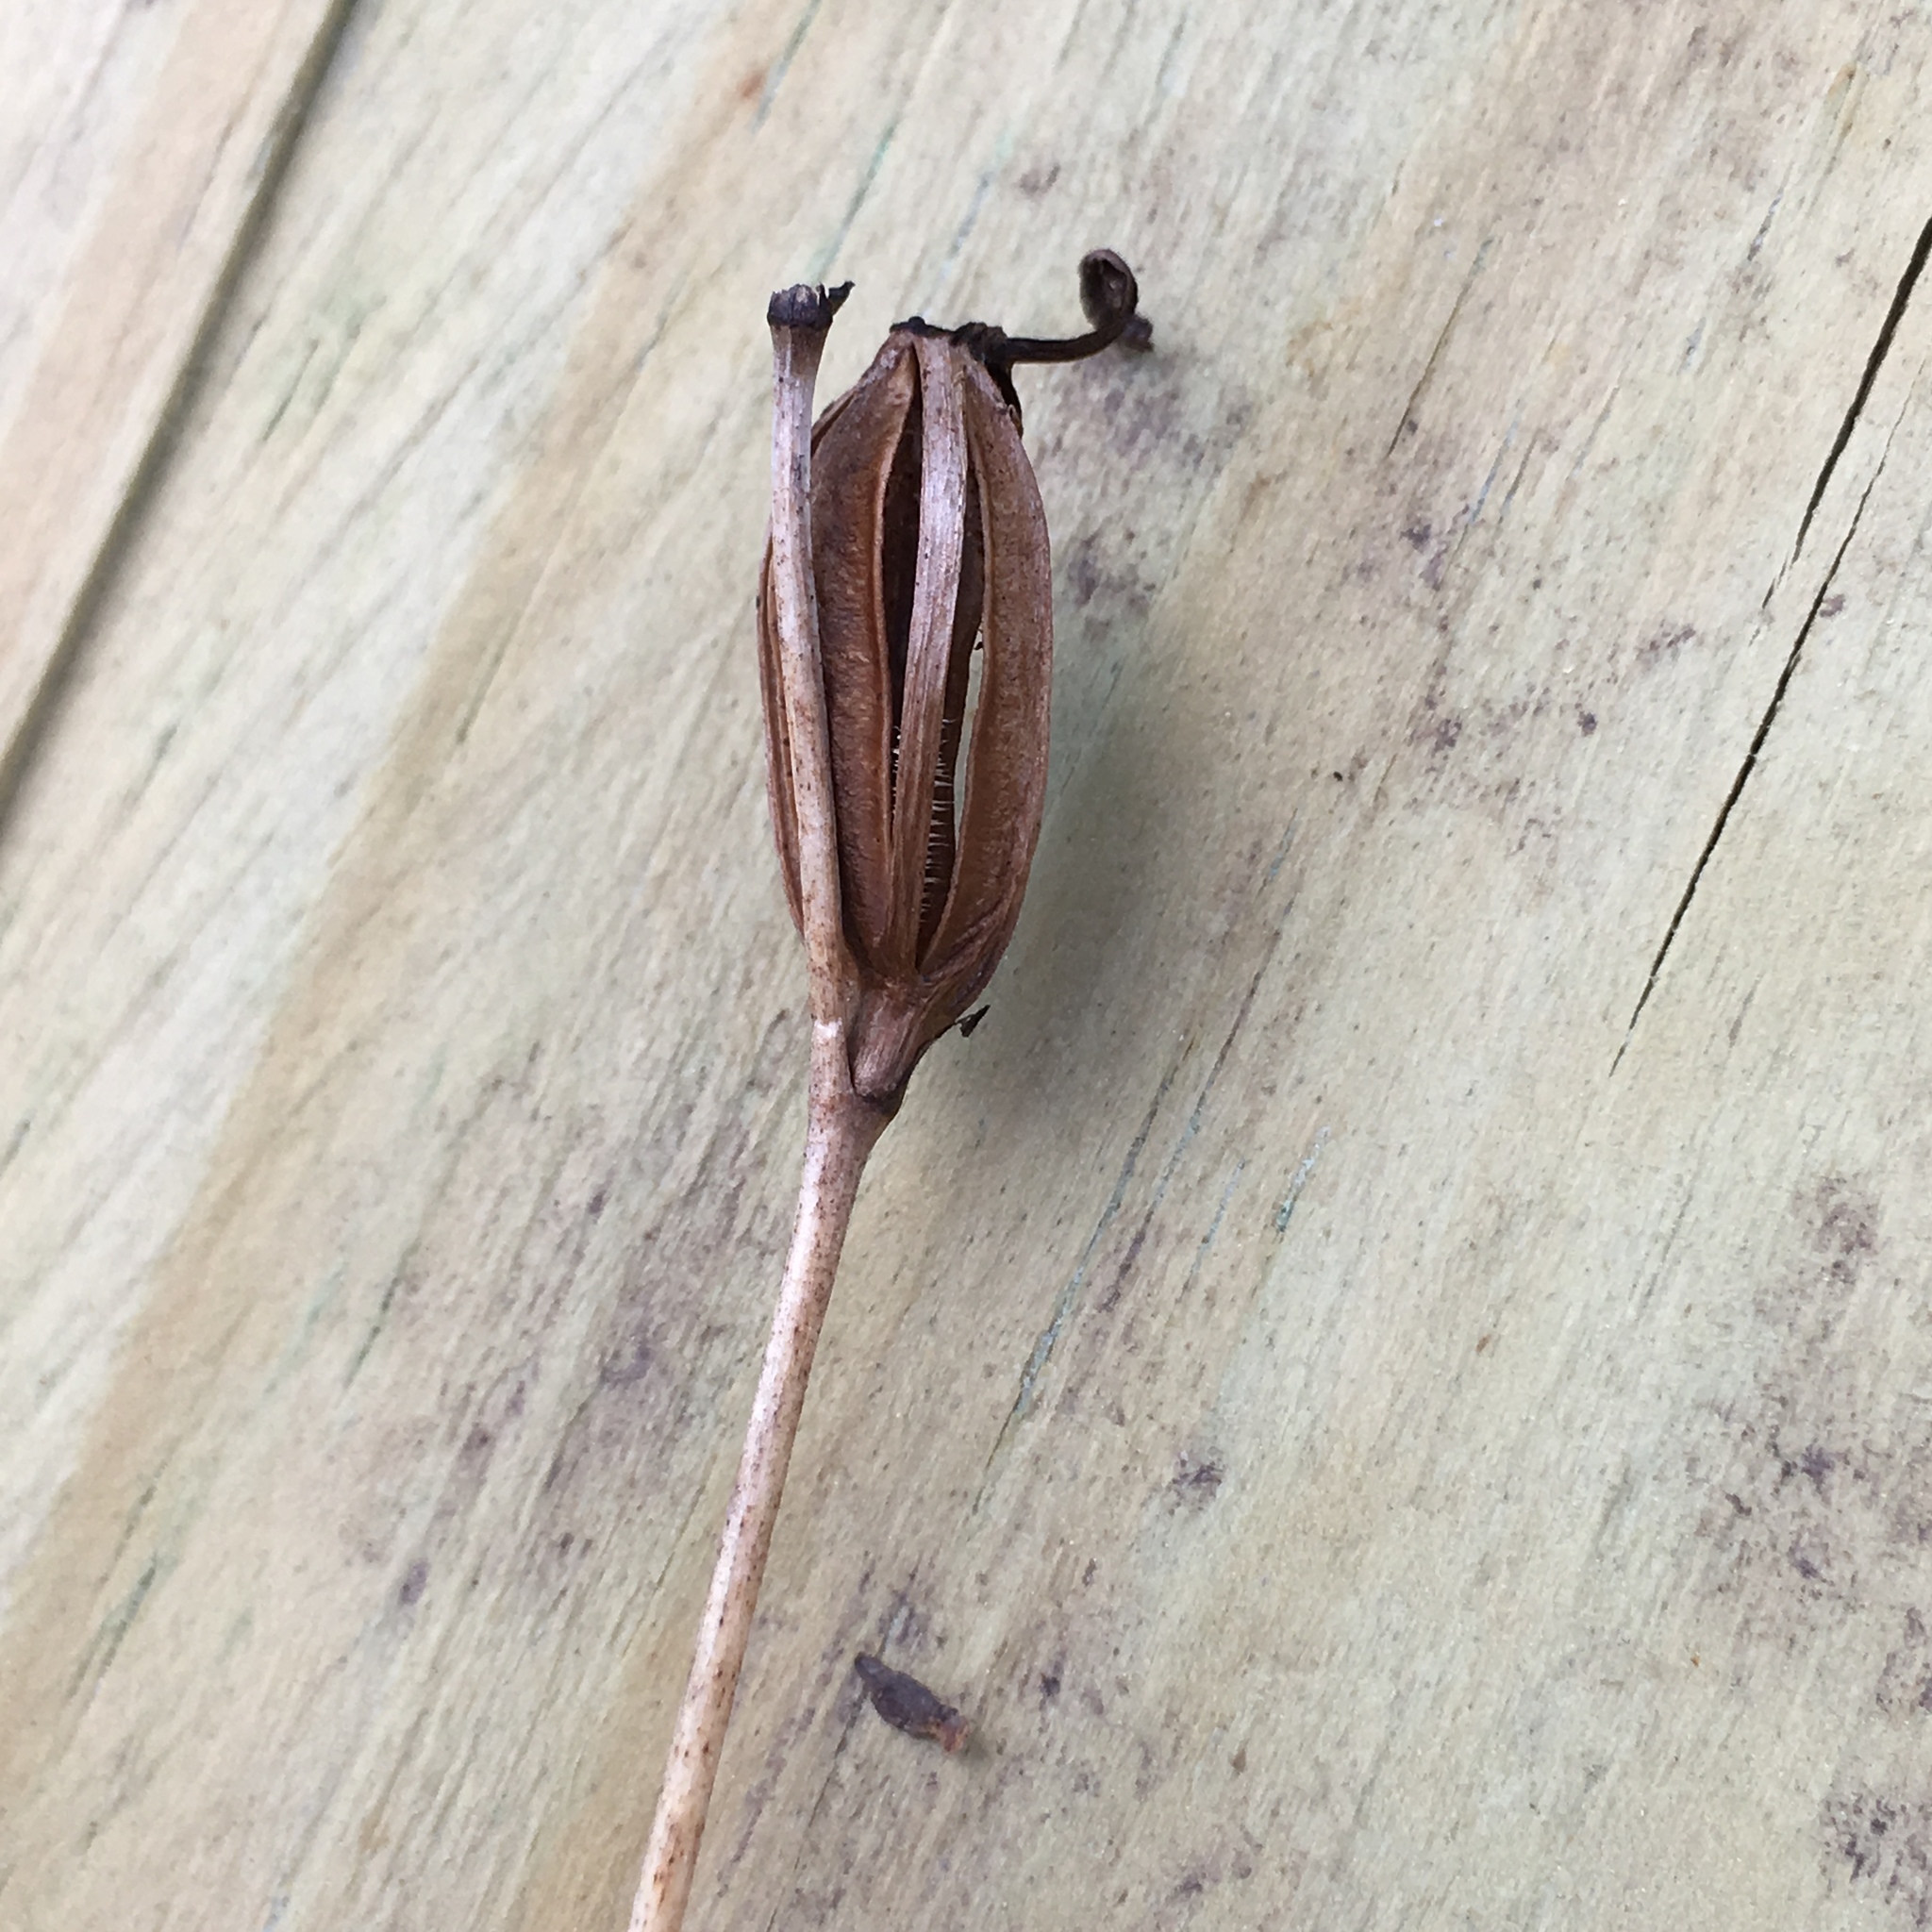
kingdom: Plantae
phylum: Tracheophyta
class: Liliopsida
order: Asparagales
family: Orchidaceae
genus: Calopogon
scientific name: Calopogon tuberosus
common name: Grass-pink
